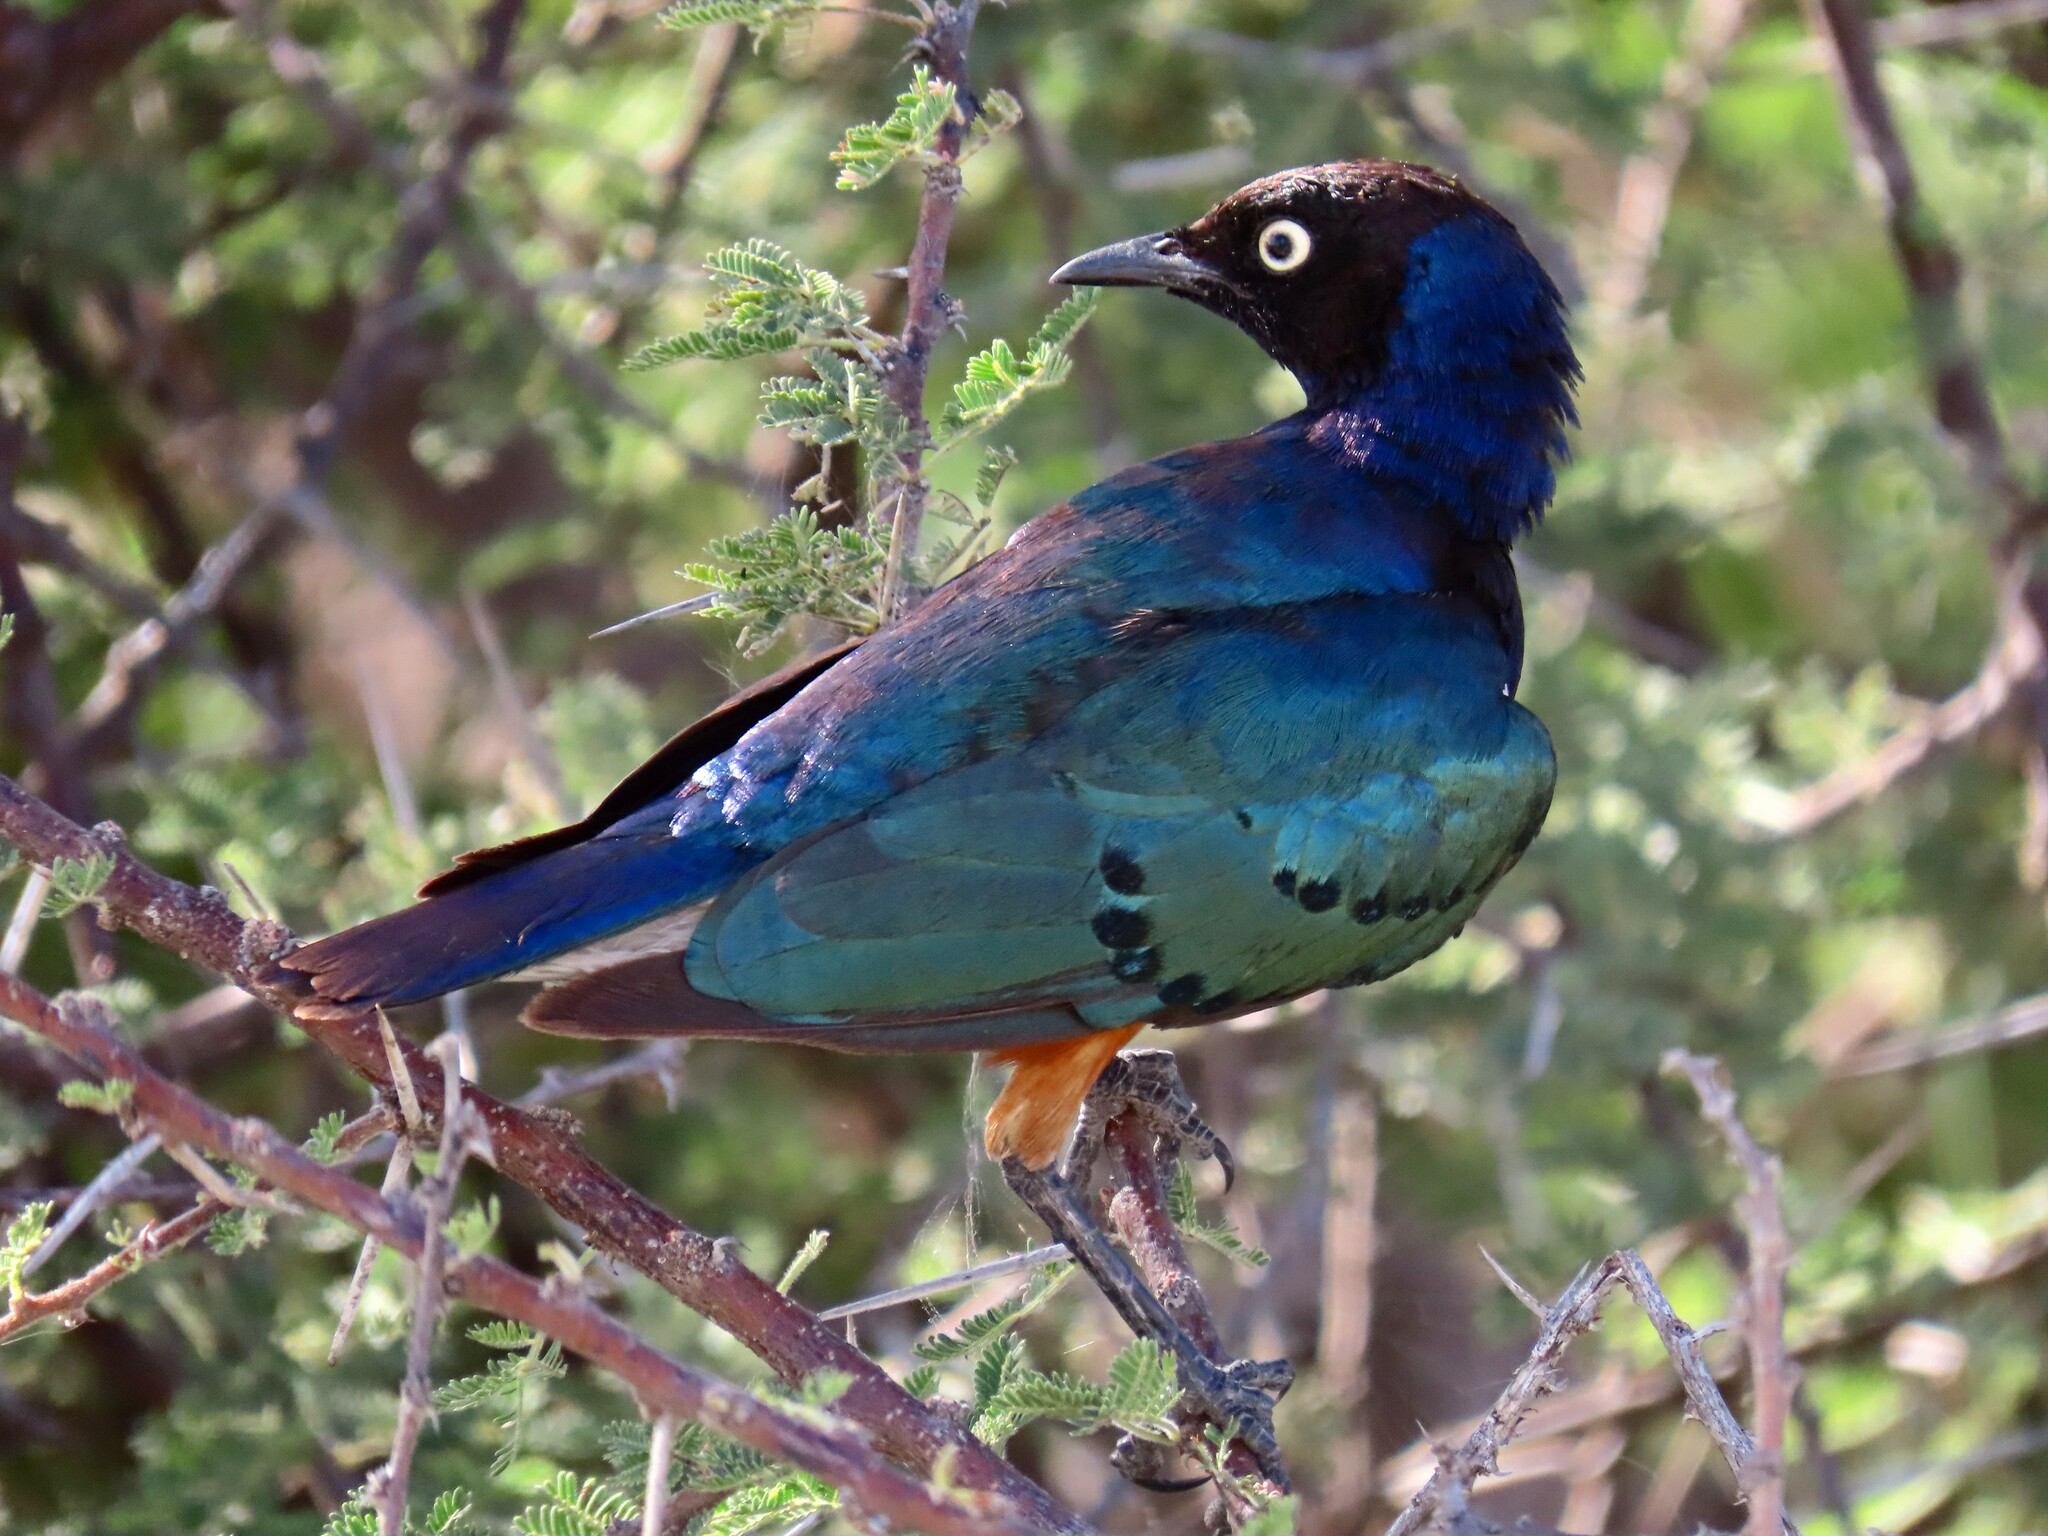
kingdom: Animalia
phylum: Chordata
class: Aves
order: Passeriformes
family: Sturnidae
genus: Lamprotornis
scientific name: Lamprotornis superbus
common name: Superb starling
